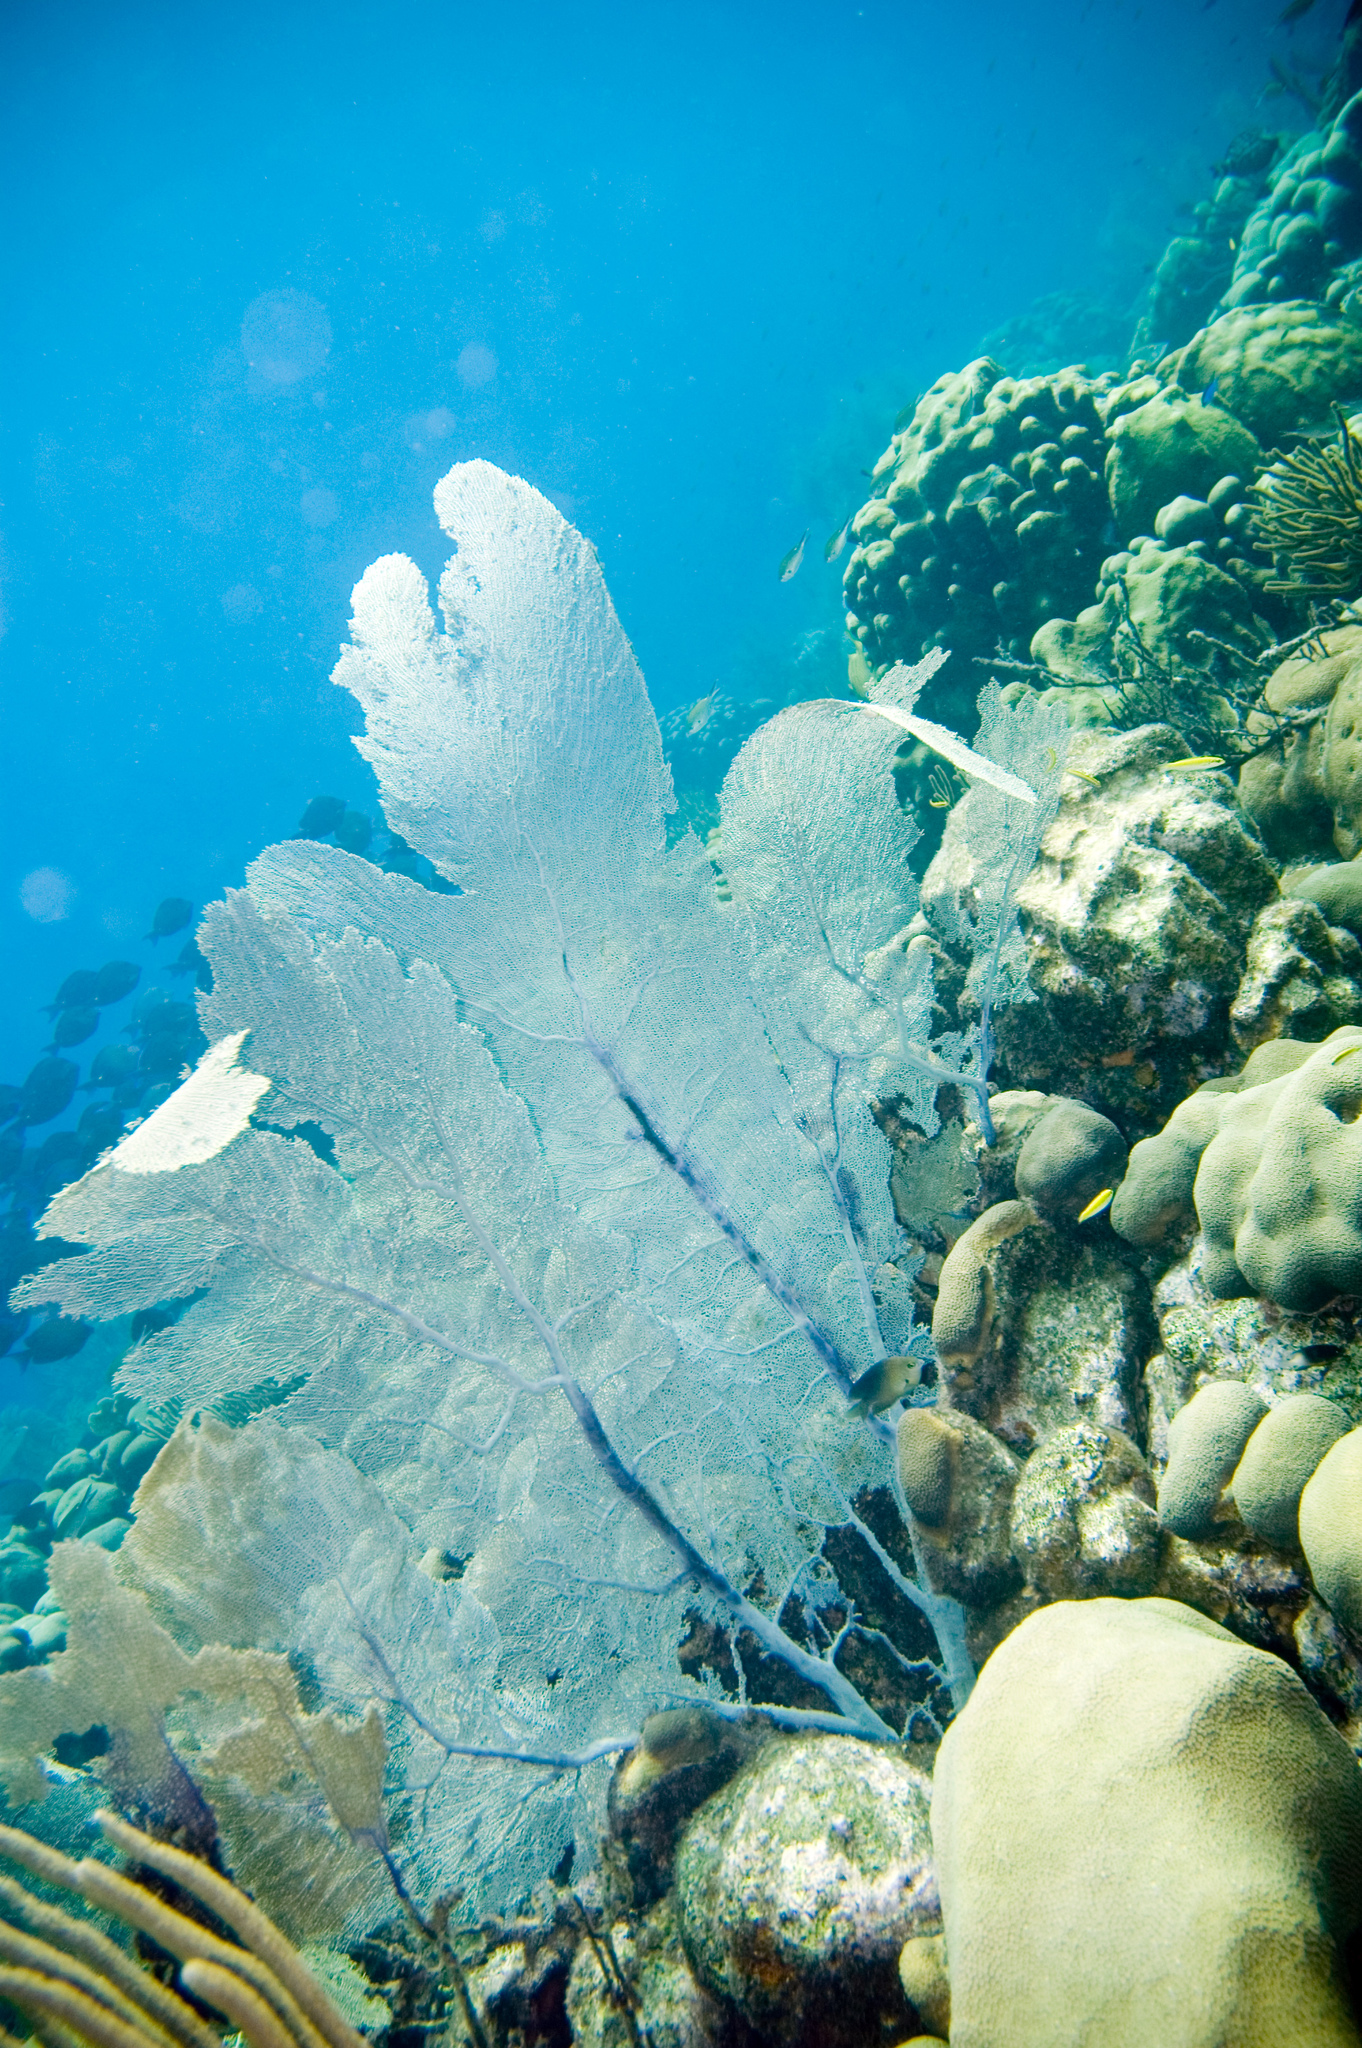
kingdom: Animalia
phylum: Cnidaria
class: Anthozoa
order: Malacalcyonacea
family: Gorgoniidae
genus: Gorgonia
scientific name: Gorgonia ventalina
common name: Common sea fan
